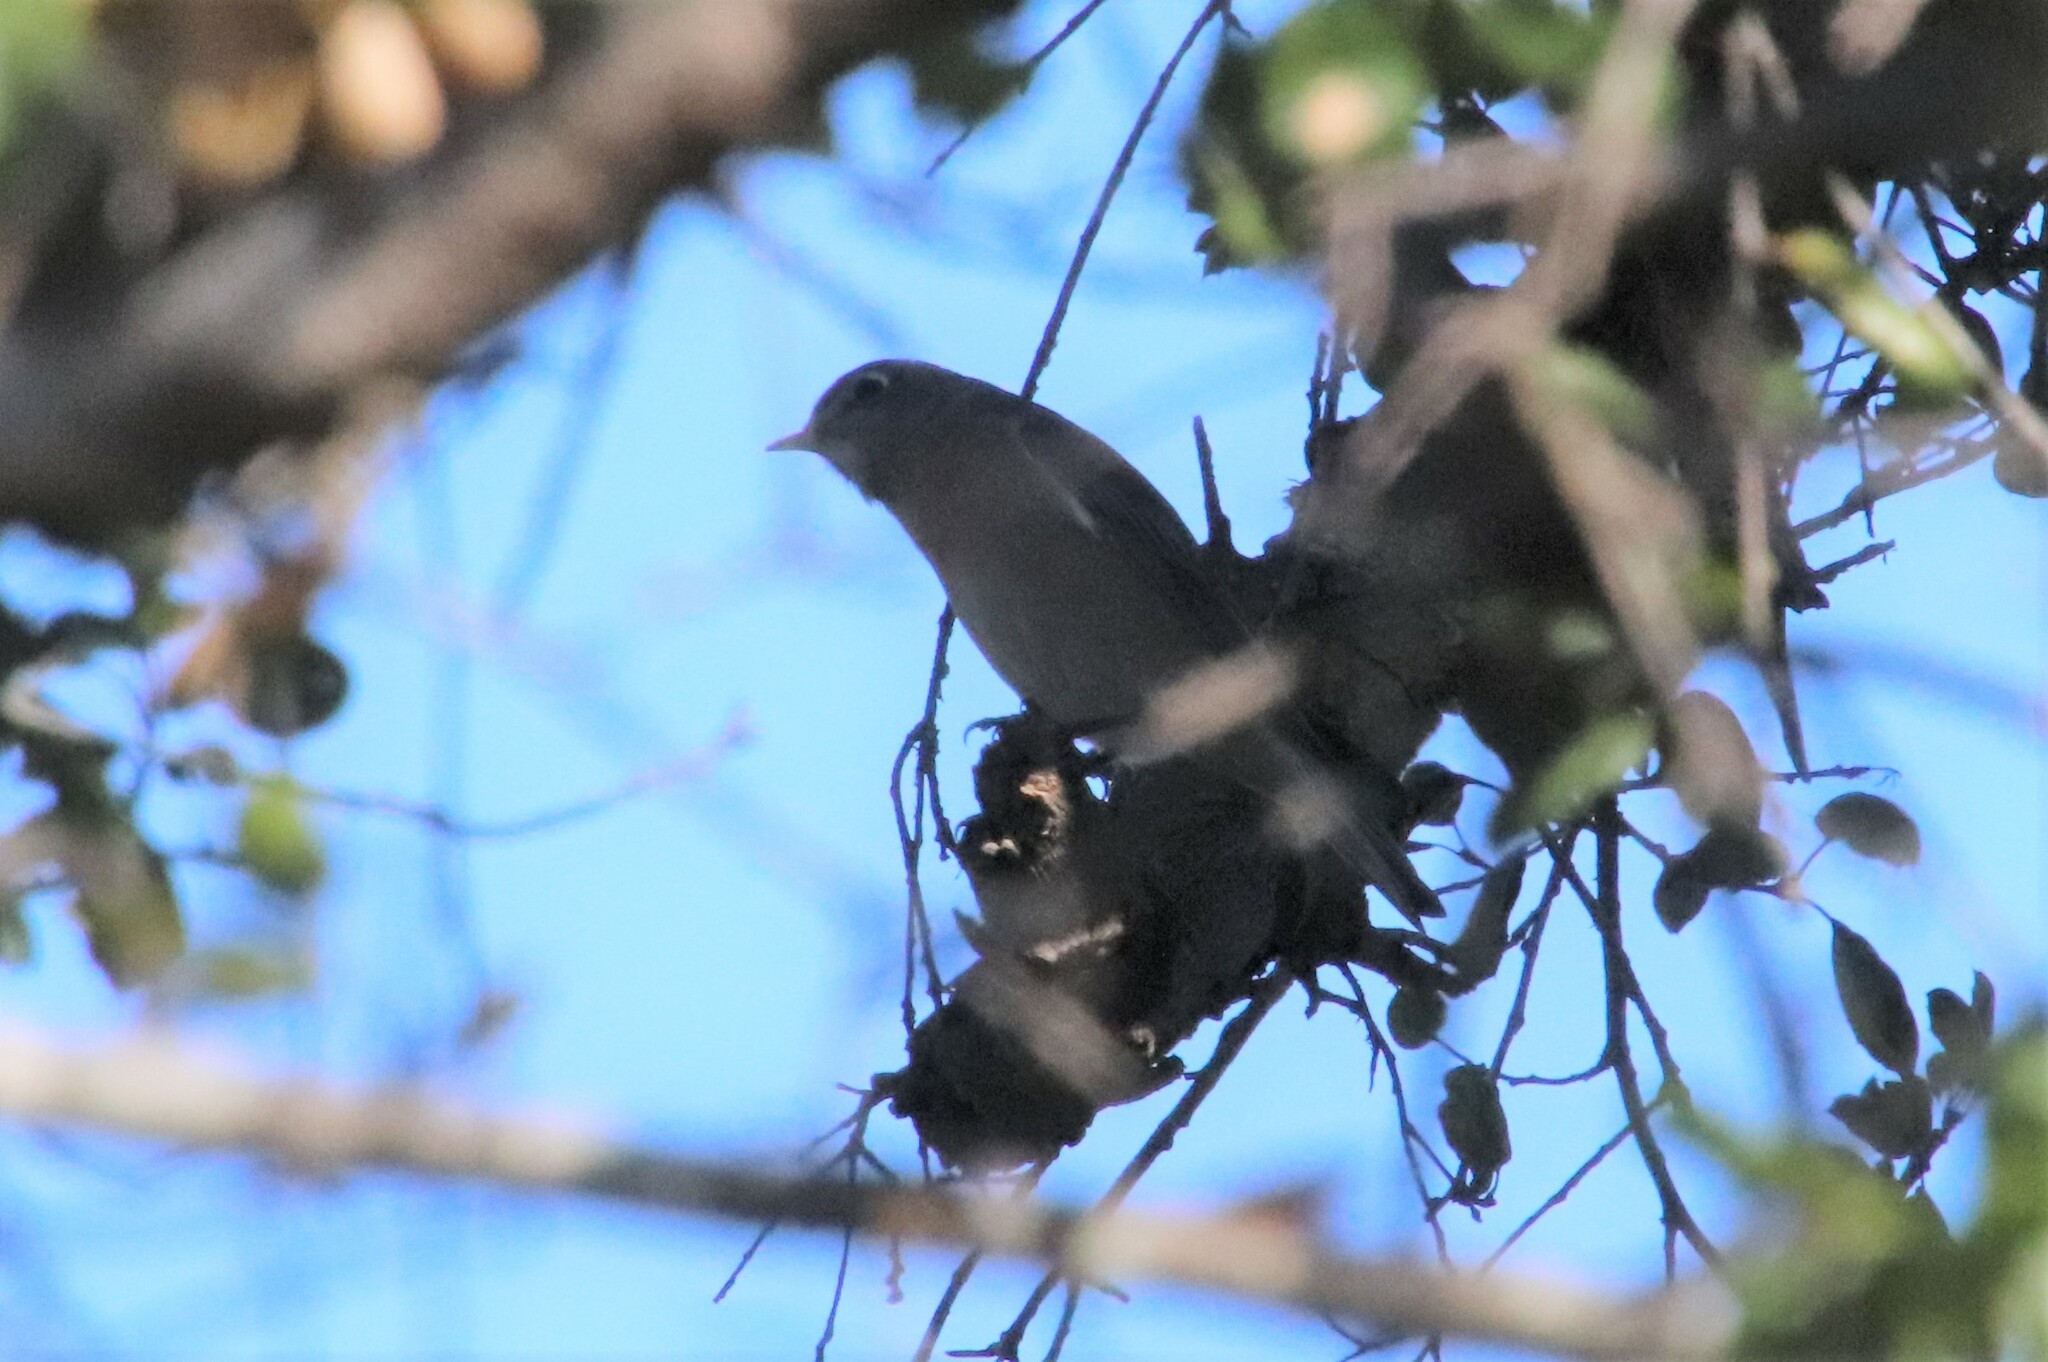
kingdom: Animalia
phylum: Chordata
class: Aves
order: Passeriformes
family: Turdidae
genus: Sialia
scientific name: Sialia mexicana
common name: Western bluebird
